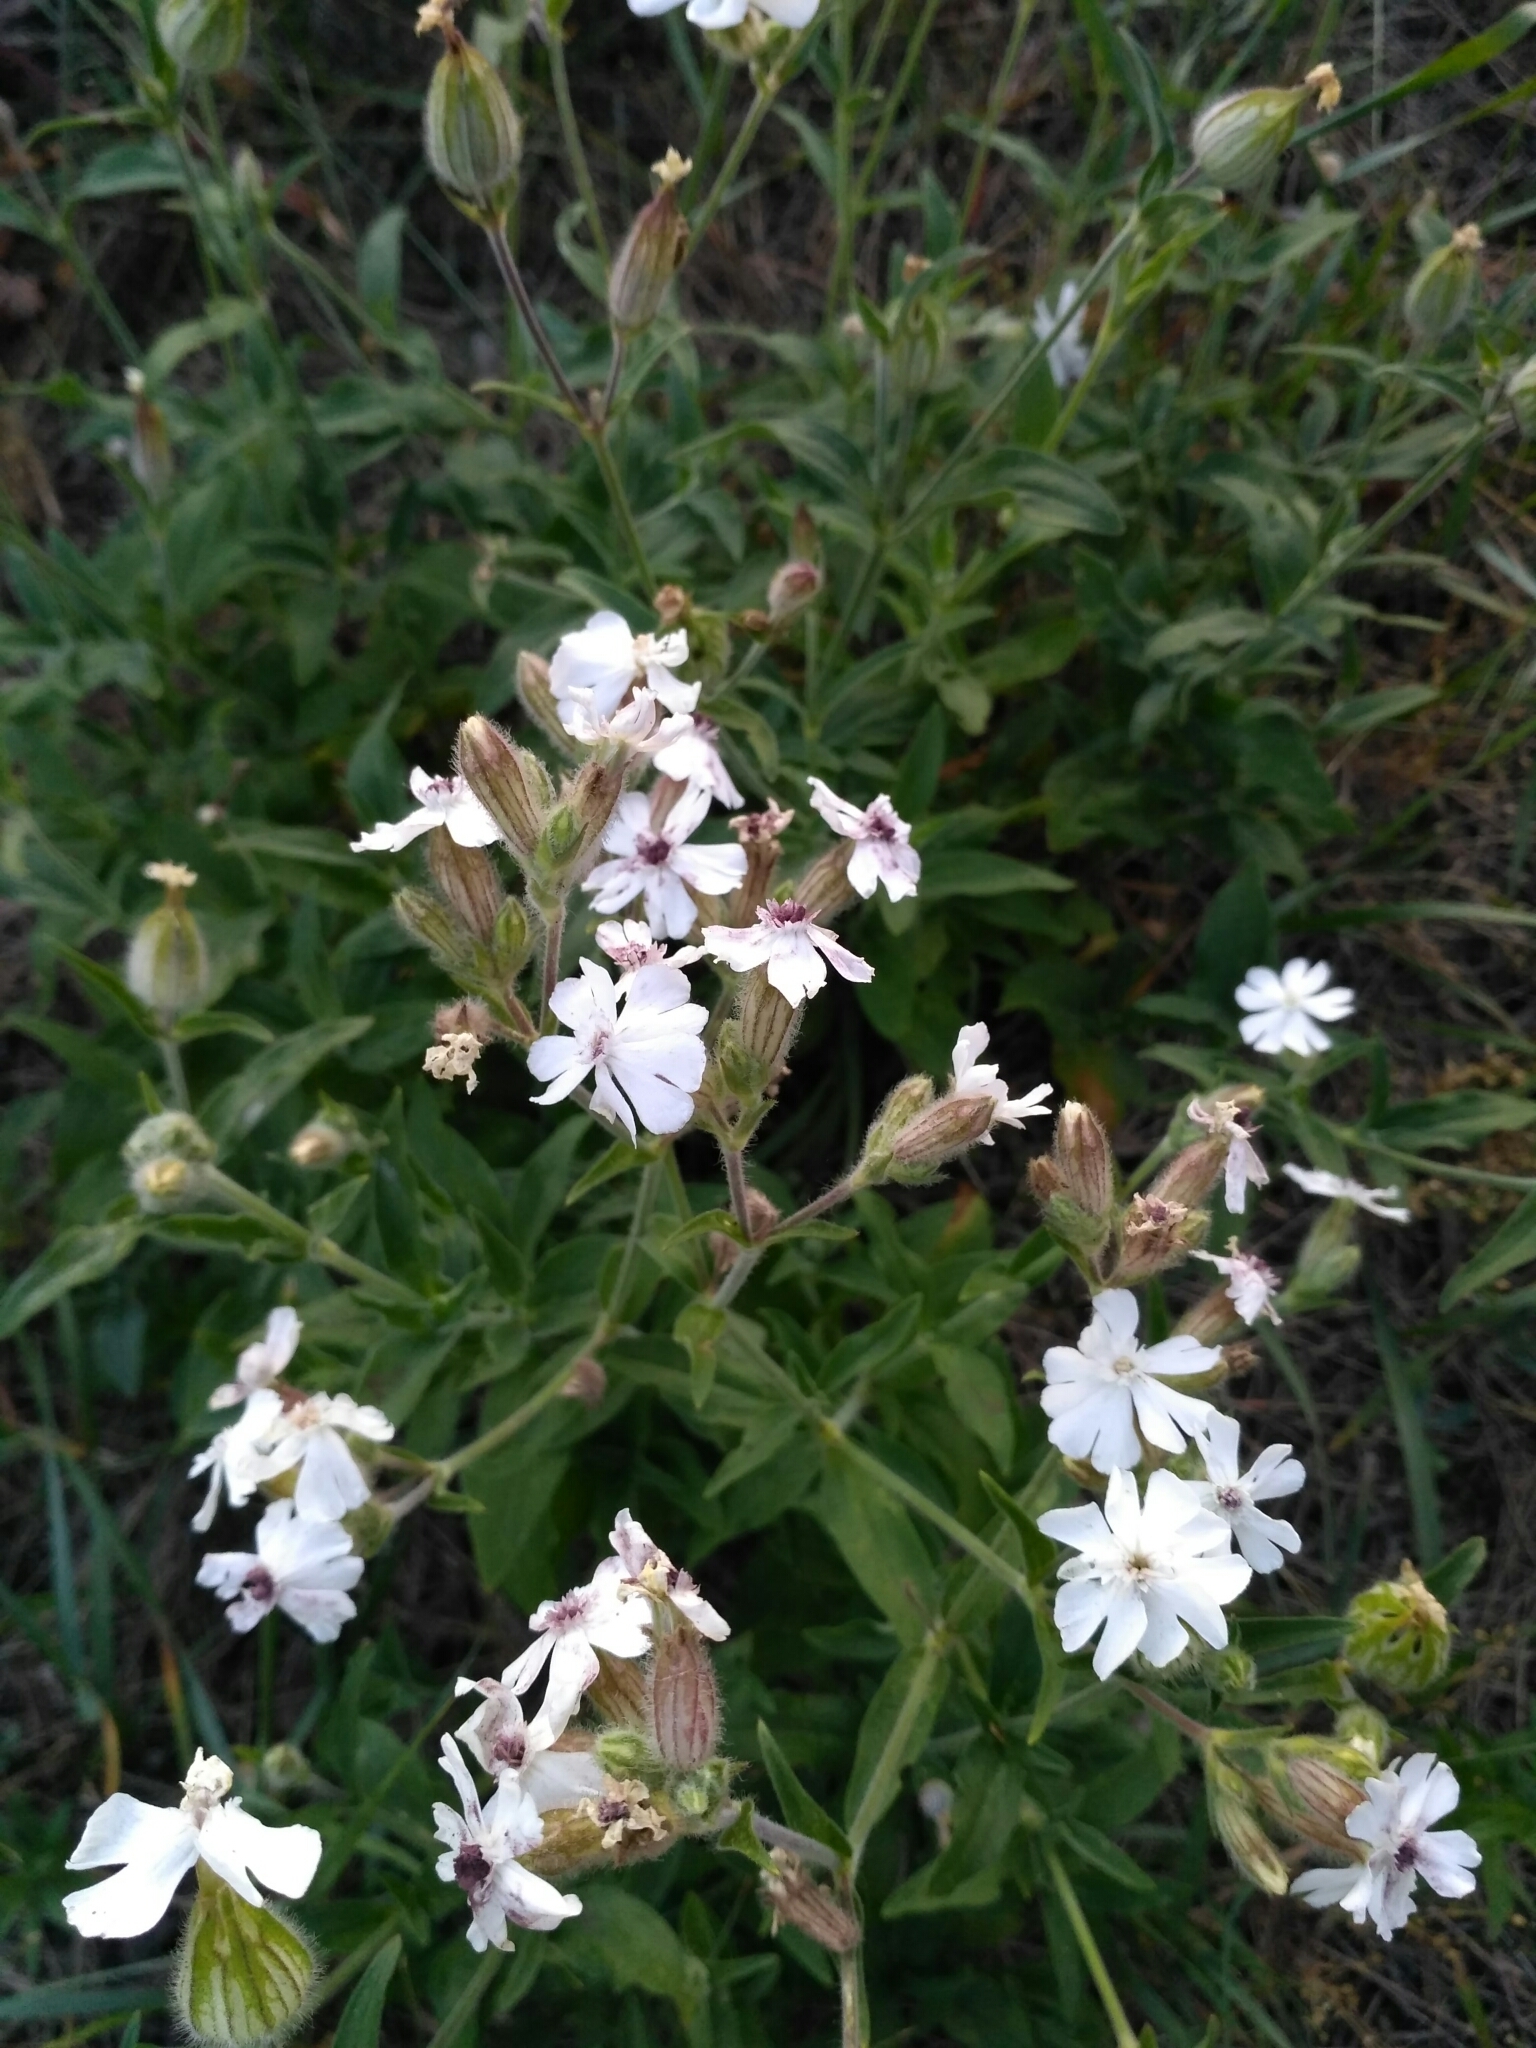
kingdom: Plantae
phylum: Tracheophyta
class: Magnoliopsida
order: Caryophyllales
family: Caryophyllaceae
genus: Silene
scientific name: Silene latifolia
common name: White campion
